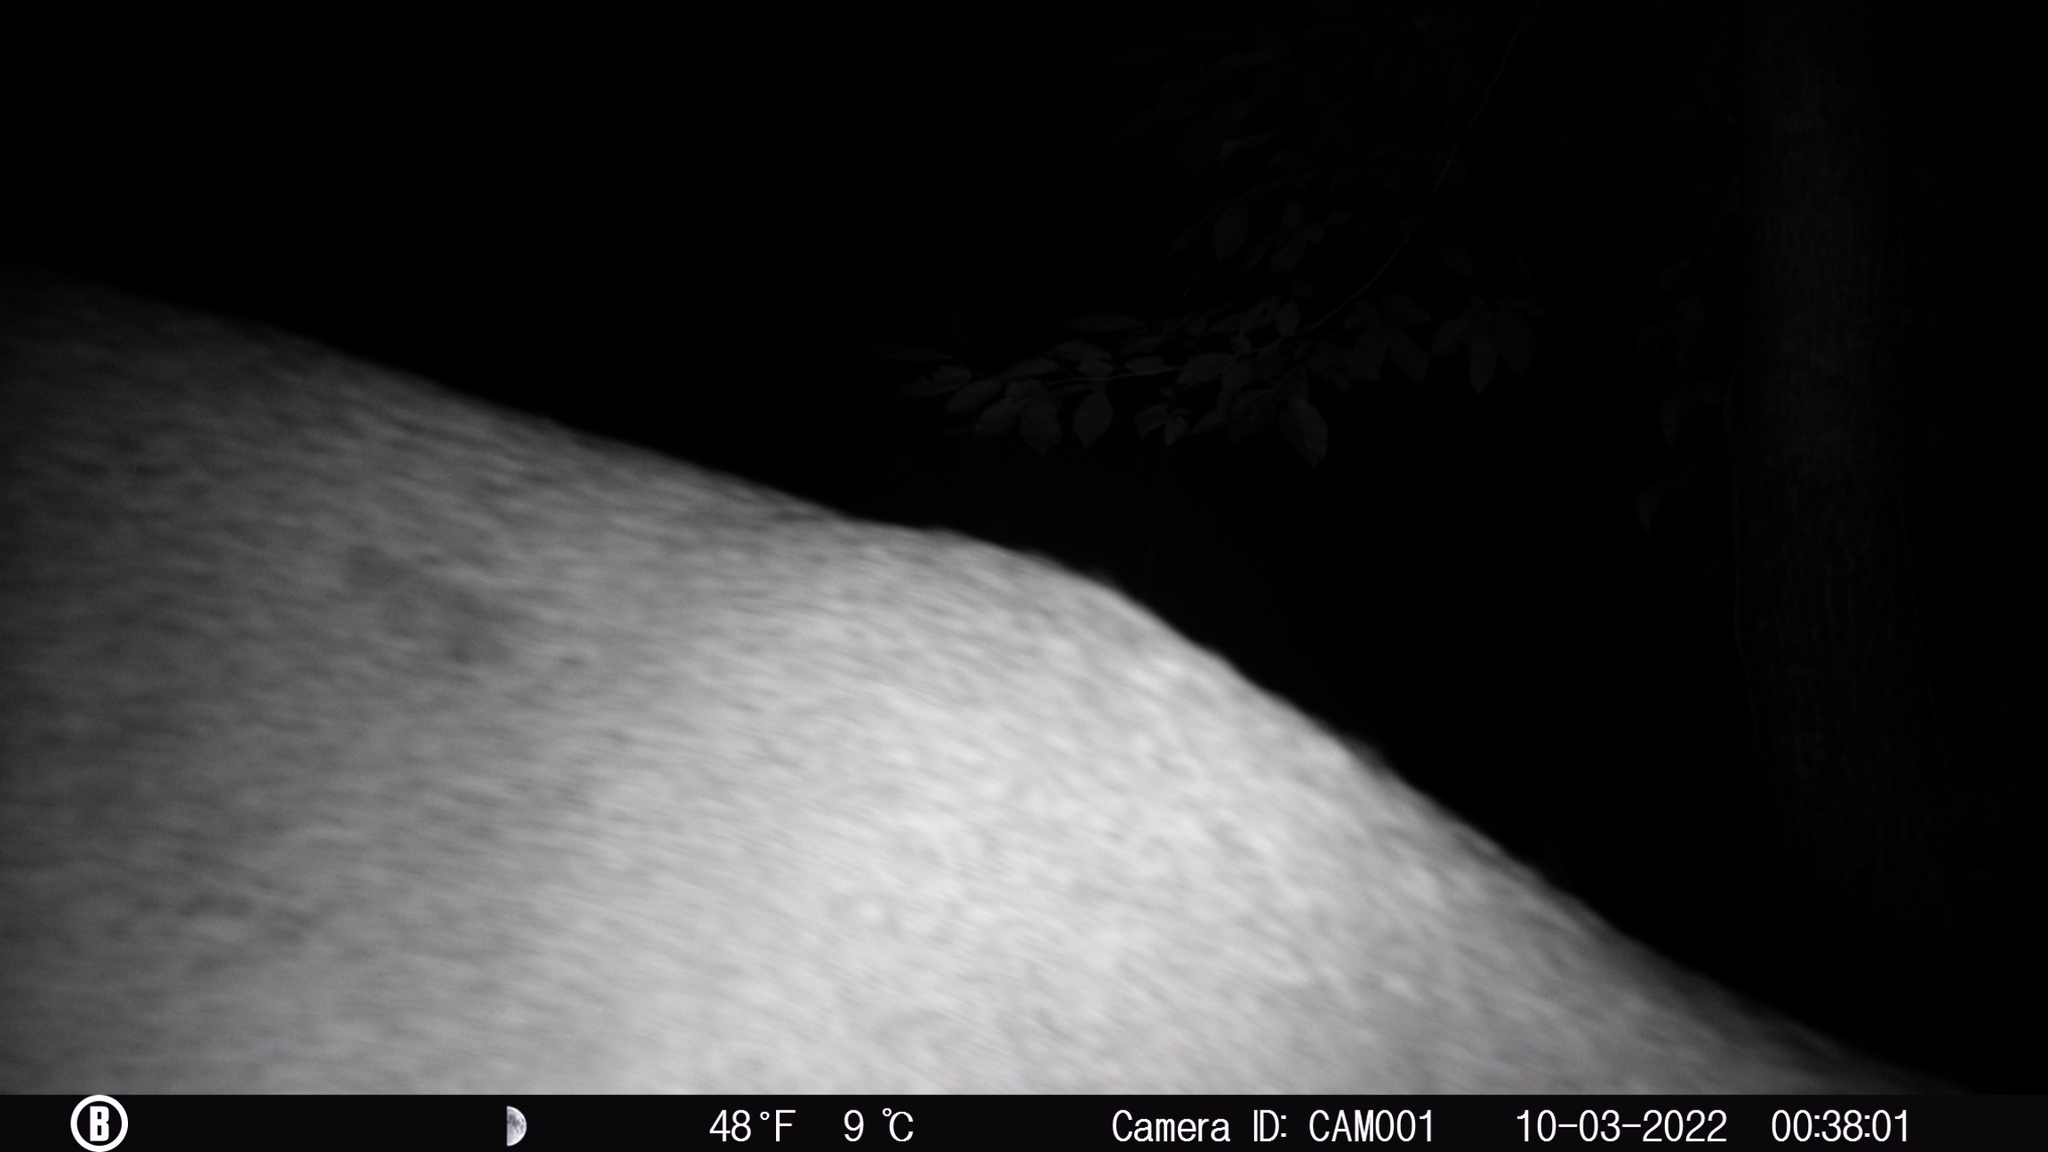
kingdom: Animalia
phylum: Chordata
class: Mammalia
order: Artiodactyla
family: Cervidae
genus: Odocoileus
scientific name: Odocoileus virginianus
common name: White-tailed deer
